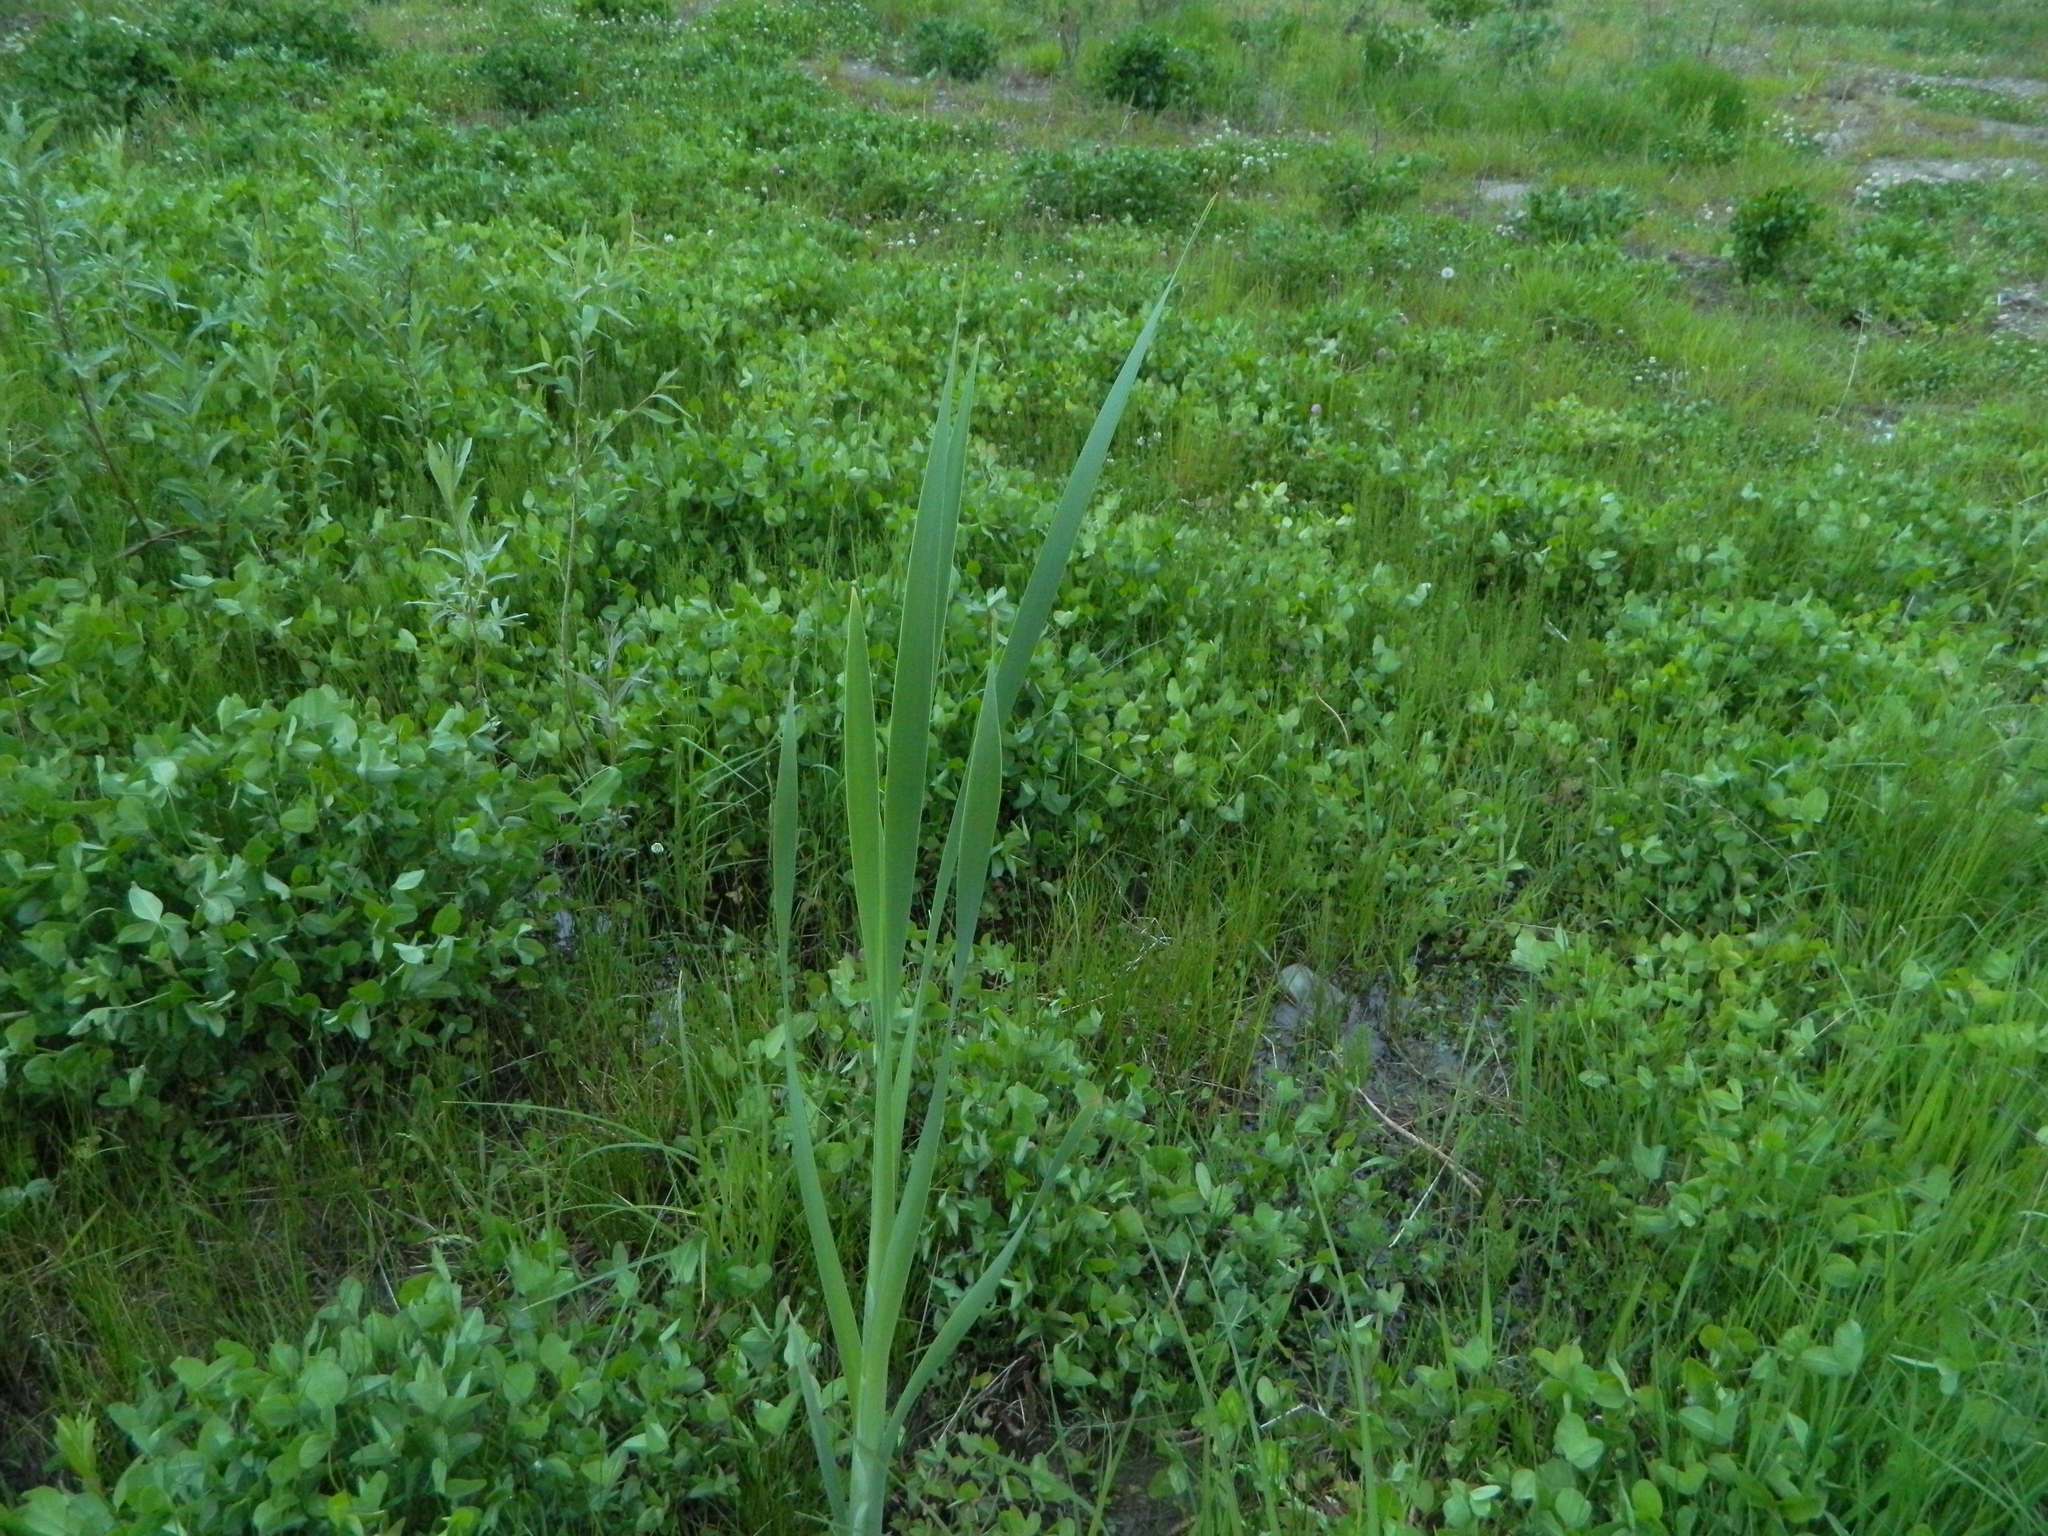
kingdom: Plantae
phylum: Tracheophyta
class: Liliopsida
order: Poales
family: Typhaceae
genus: Typha
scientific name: Typha latifolia
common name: Broadleaf cattail
